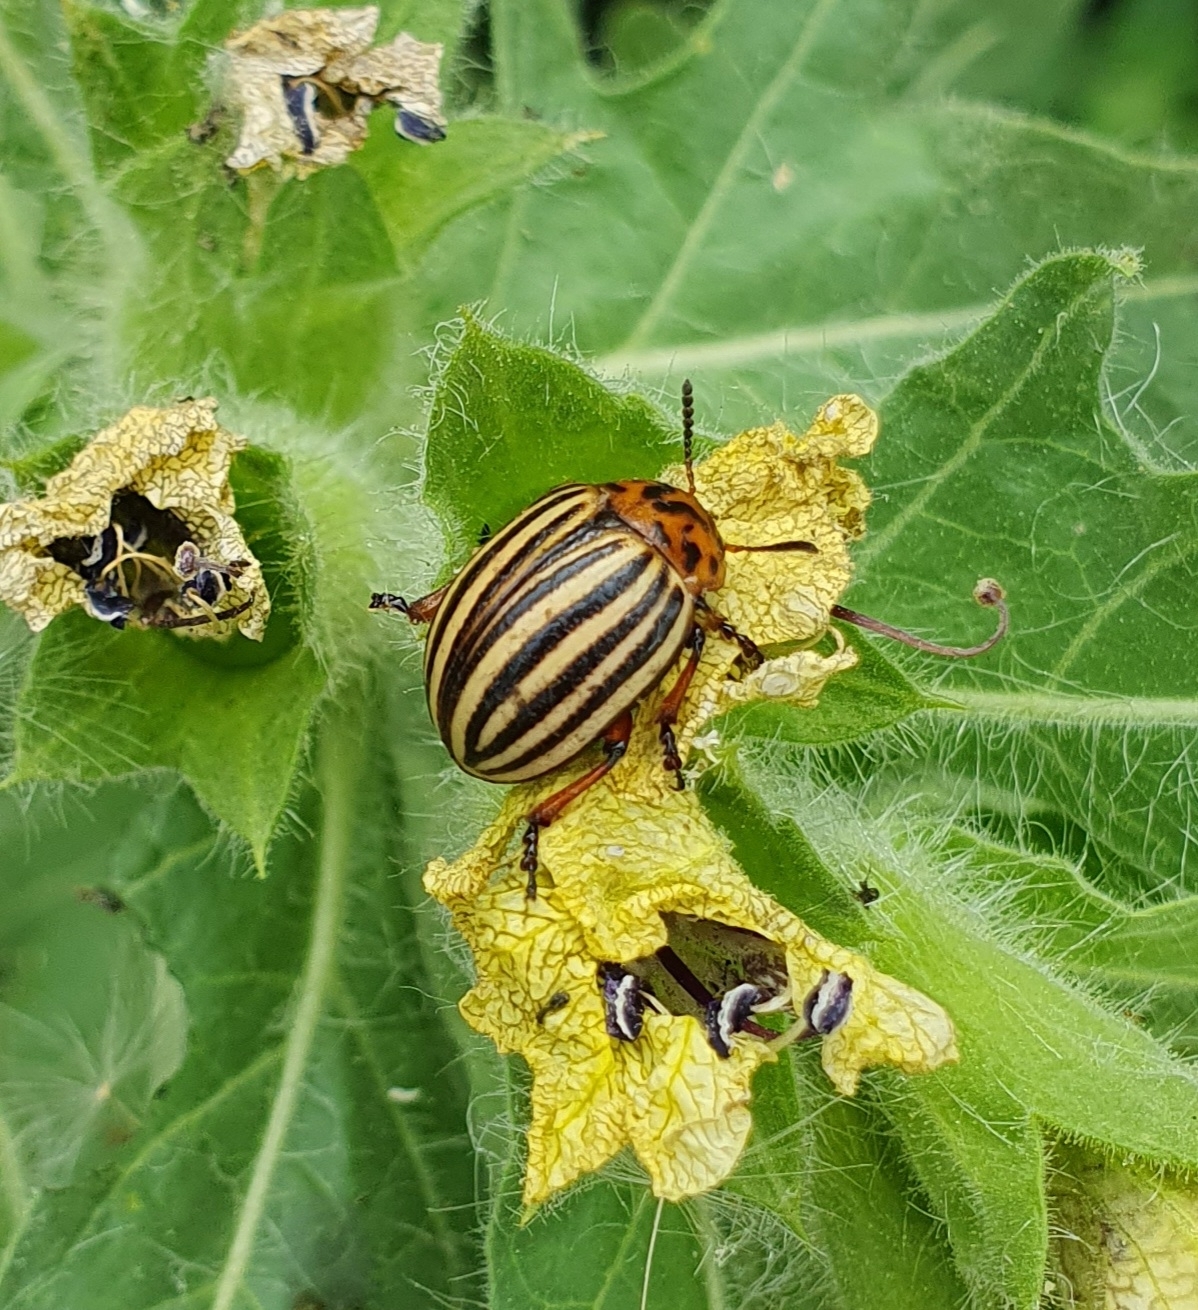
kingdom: Animalia
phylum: Arthropoda
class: Insecta
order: Coleoptera
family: Chrysomelidae
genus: Leptinotarsa
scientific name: Leptinotarsa decemlineata
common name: Colorado potato beetle
